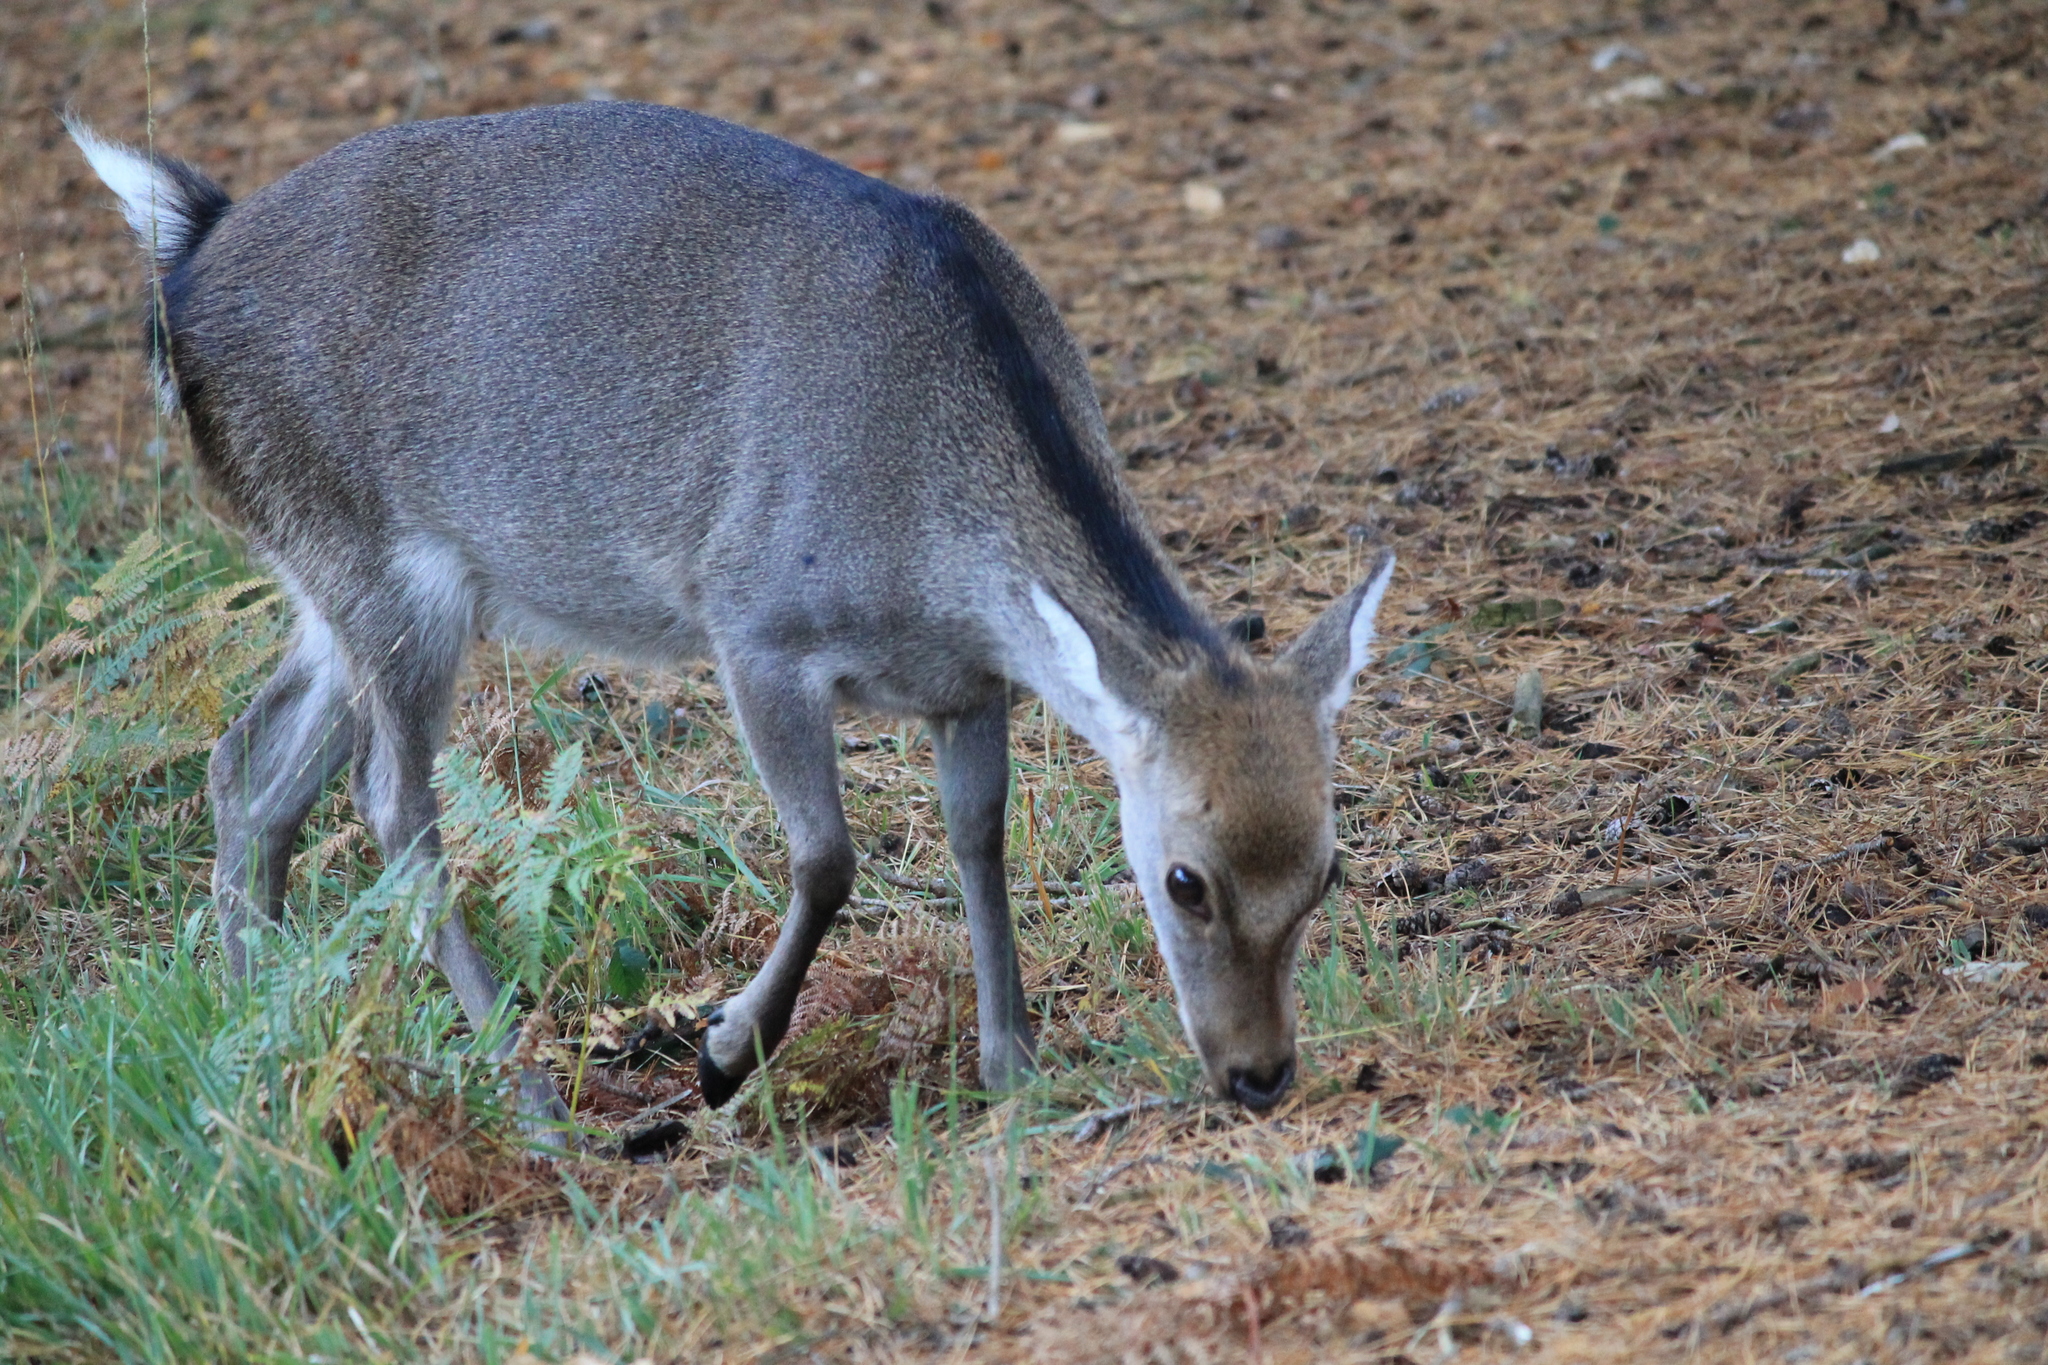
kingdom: Animalia
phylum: Chordata
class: Mammalia
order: Artiodactyla
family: Cervidae
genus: Cervus
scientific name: Cervus nippon
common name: Sika deer
